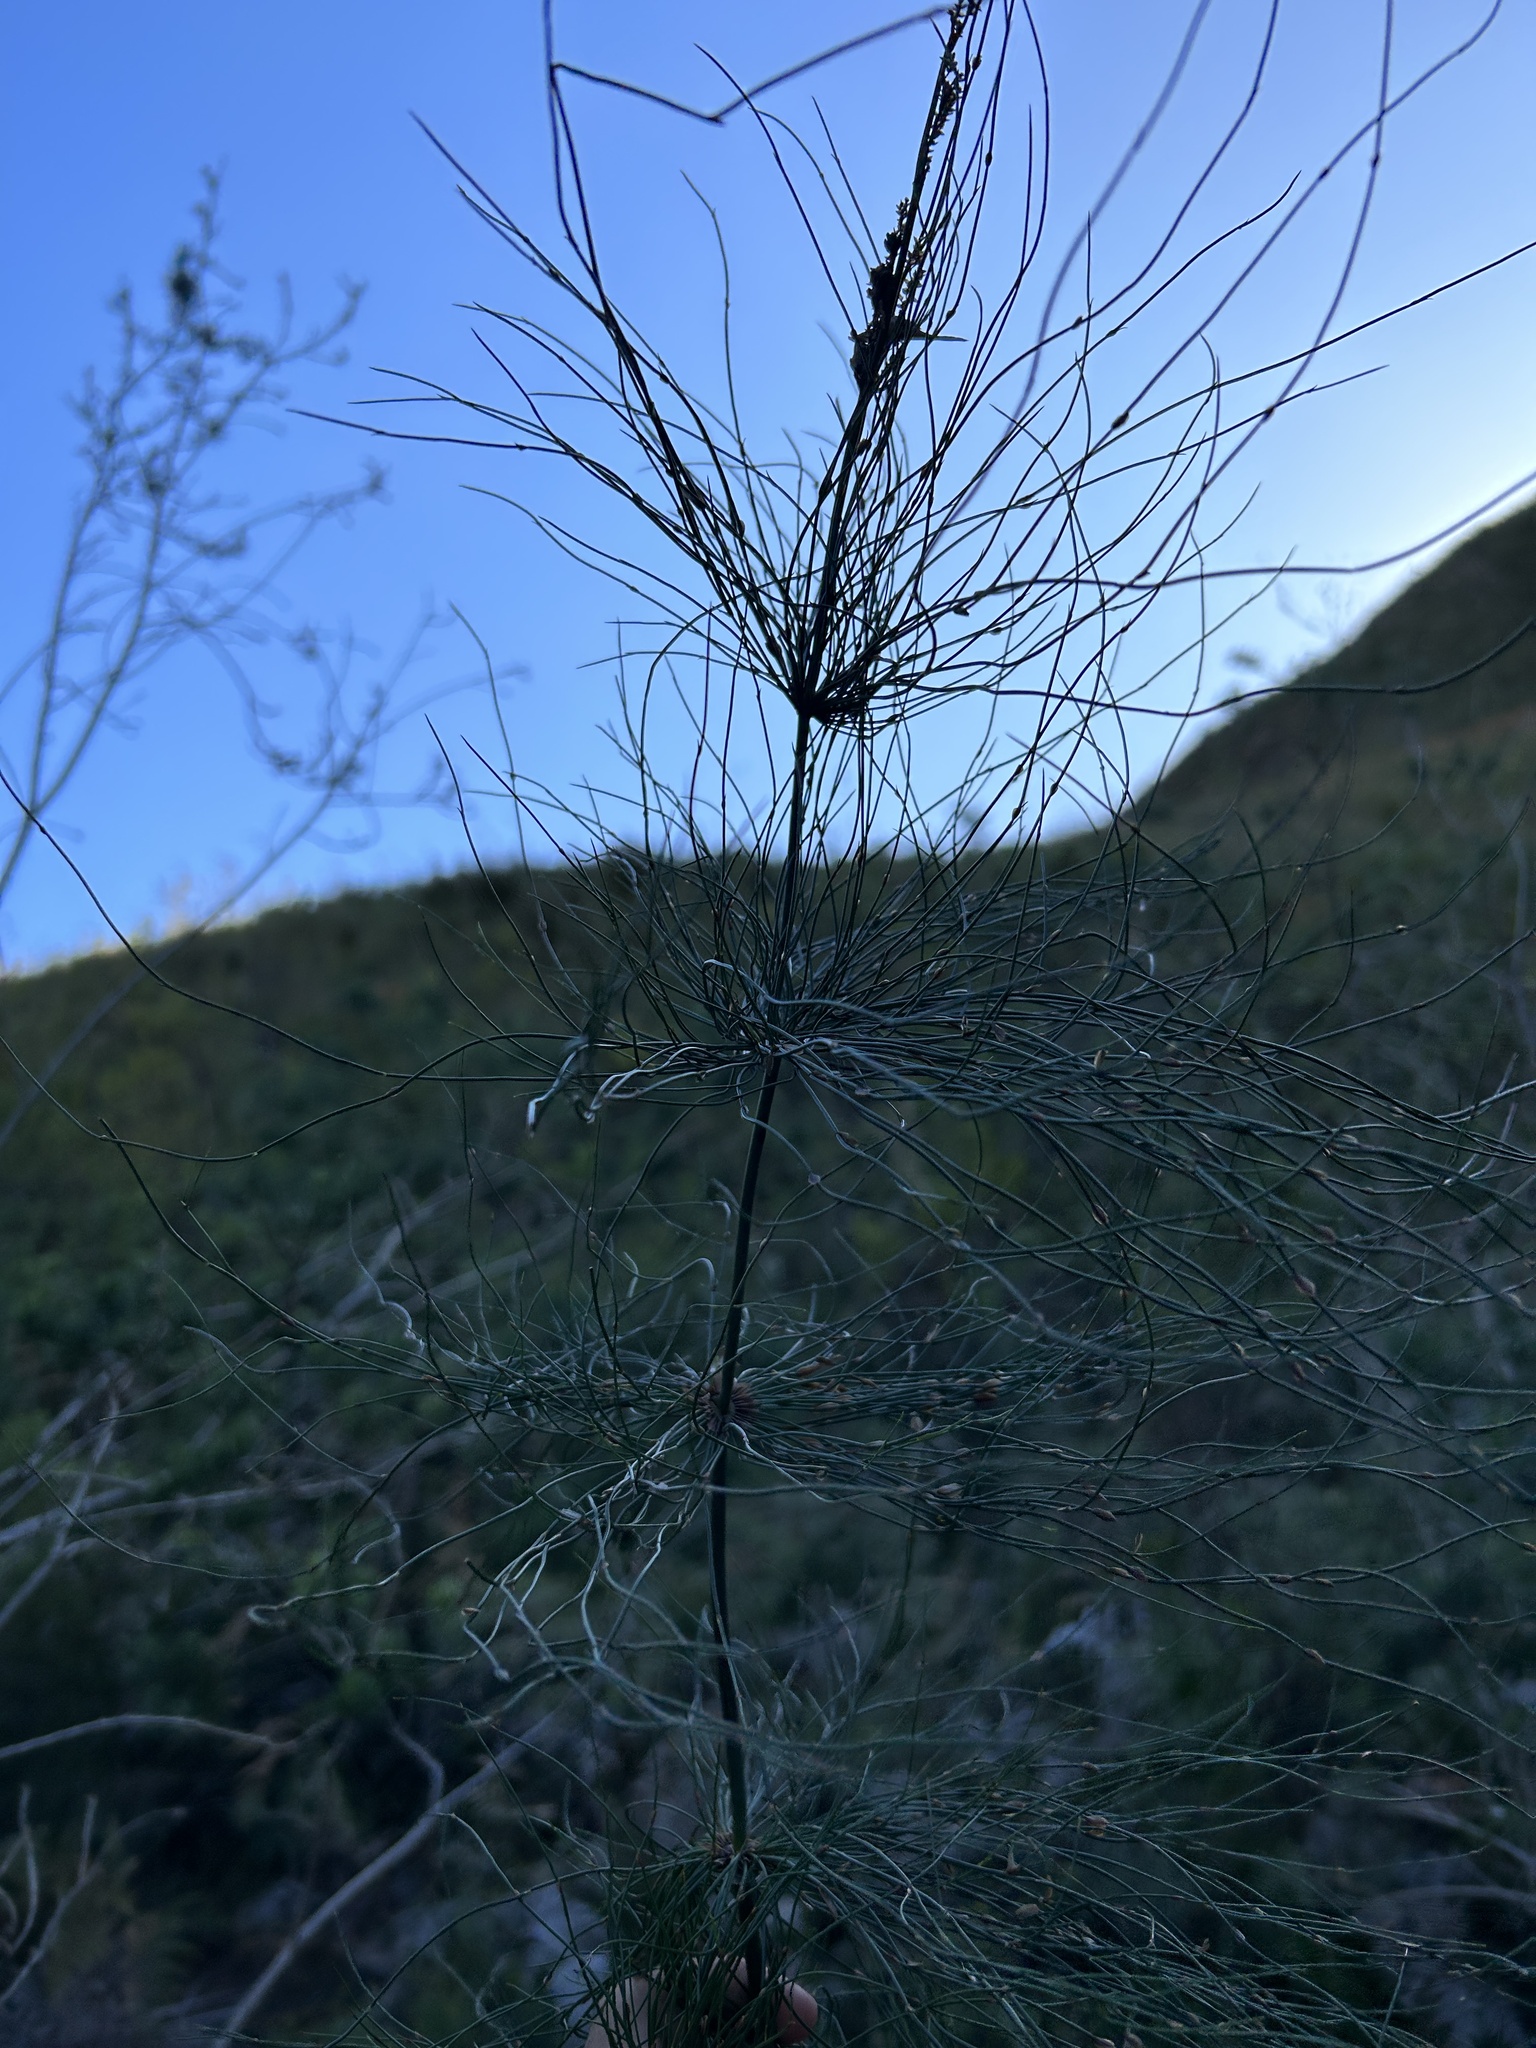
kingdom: Plantae
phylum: Tracheophyta
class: Liliopsida
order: Poales
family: Restionaceae
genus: Elegia
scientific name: Elegia capensis
